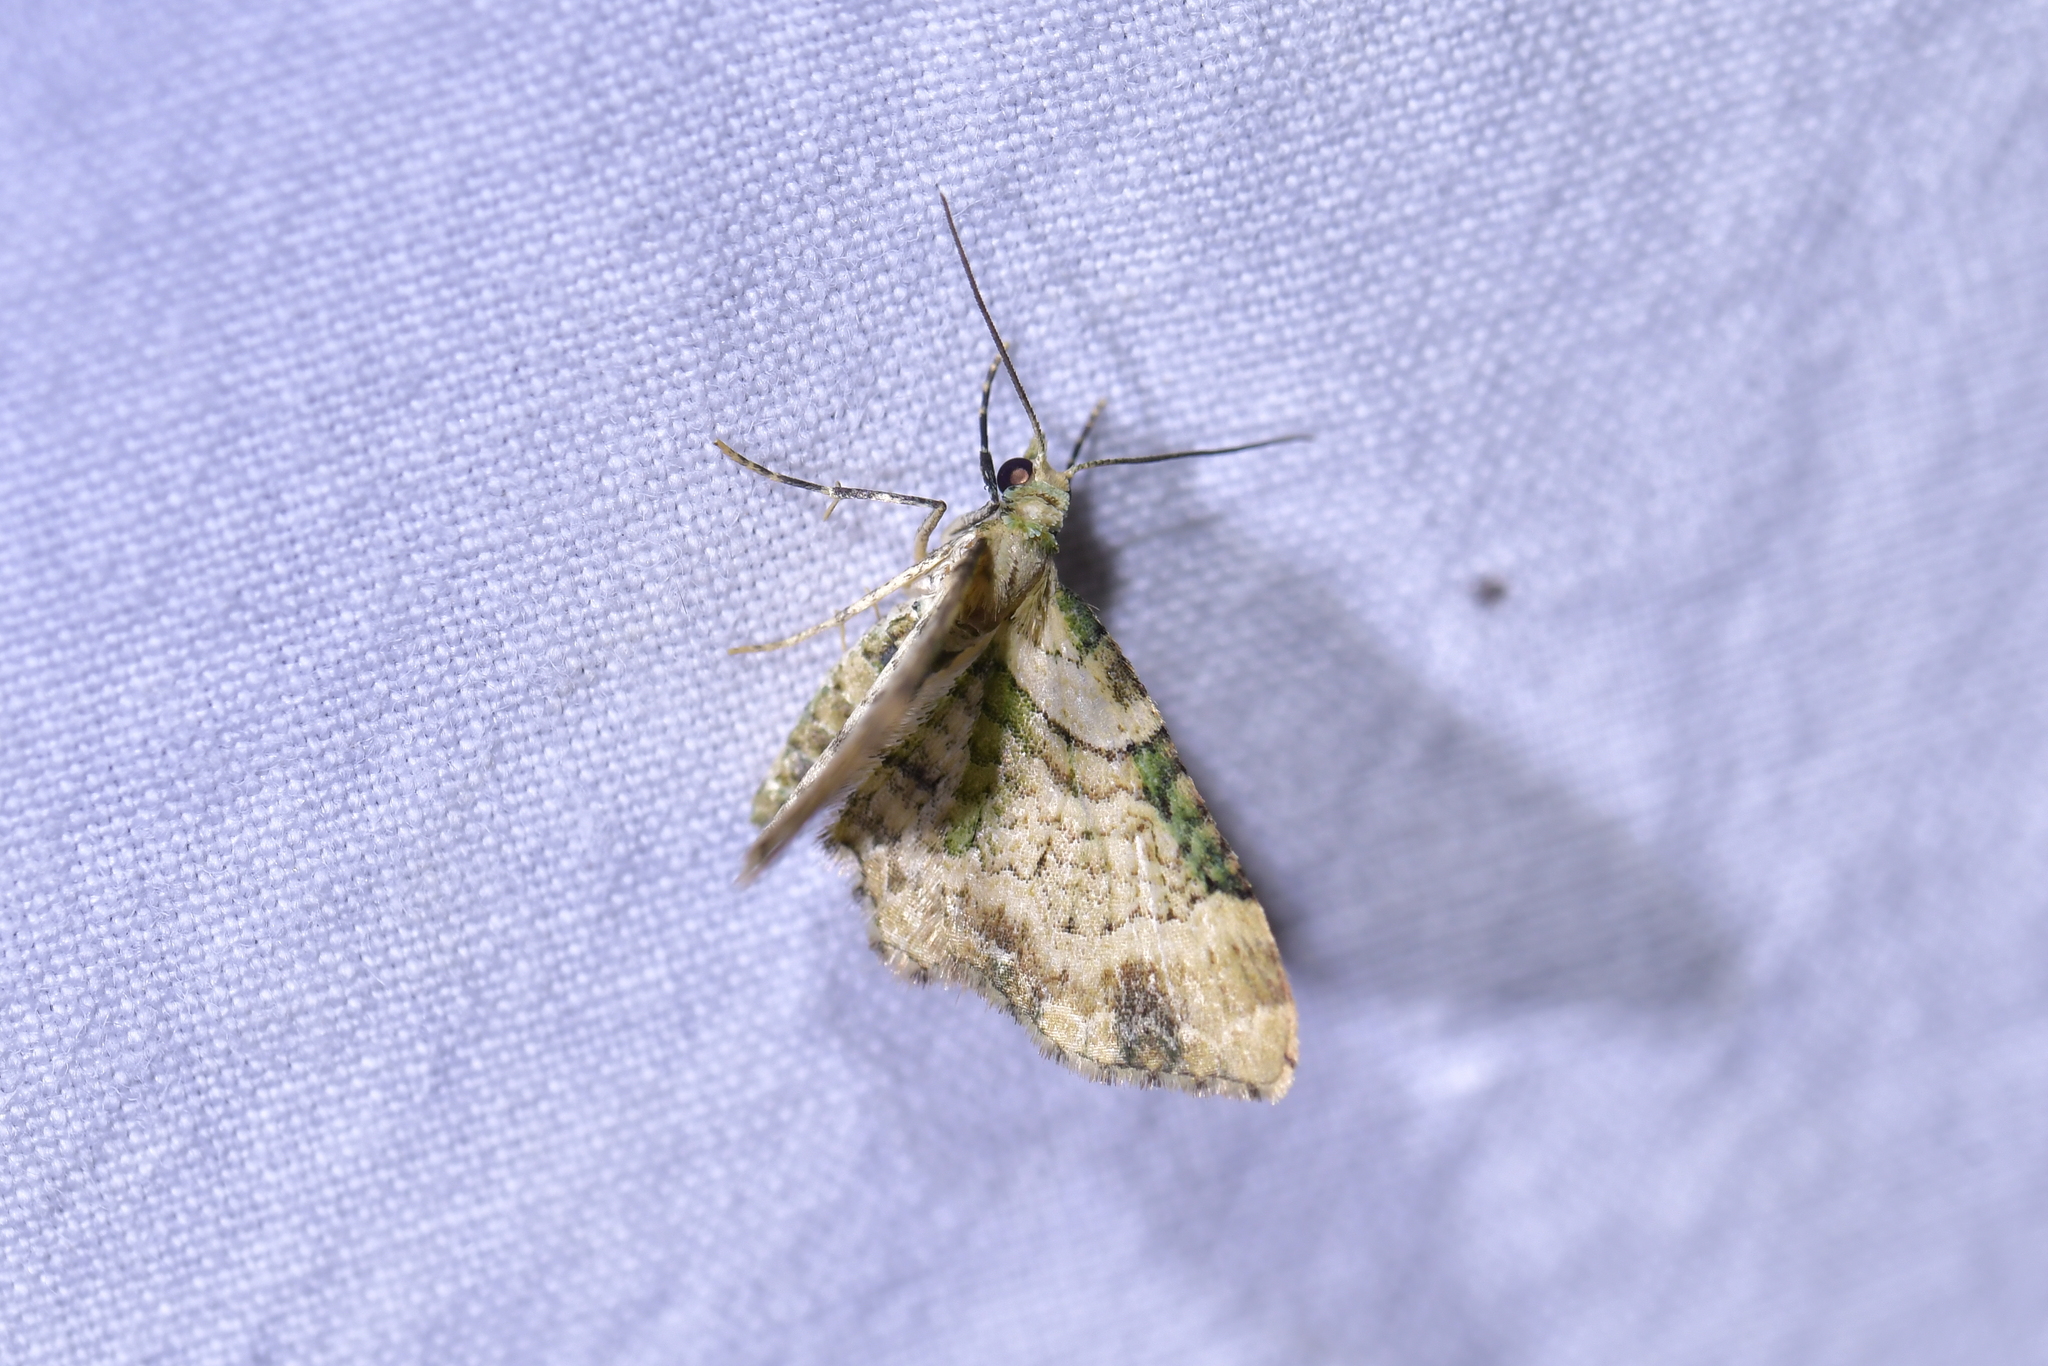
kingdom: Animalia
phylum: Arthropoda
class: Insecta
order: Lepidoptera
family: Geometridae
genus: Chloroclystis
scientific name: Chloroclystis
